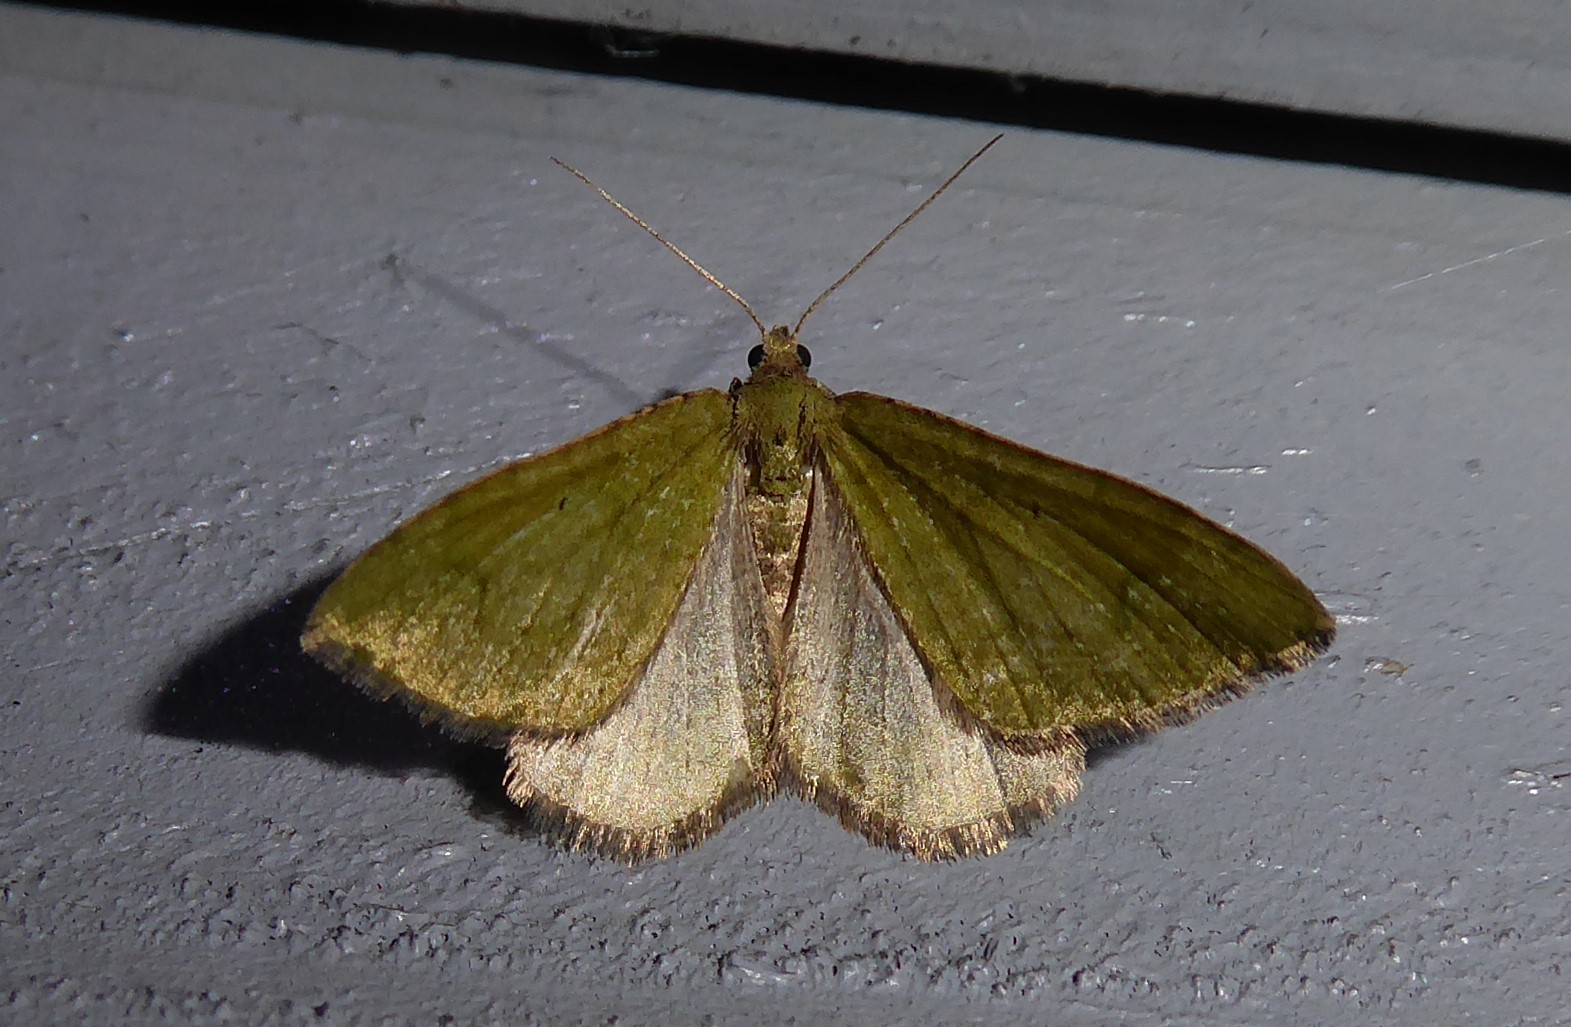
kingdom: Animalia
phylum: Arthropoda
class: Insecta
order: Lepidoptera
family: Geometridae
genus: Epyaxa
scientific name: Epyaxa rosearia
